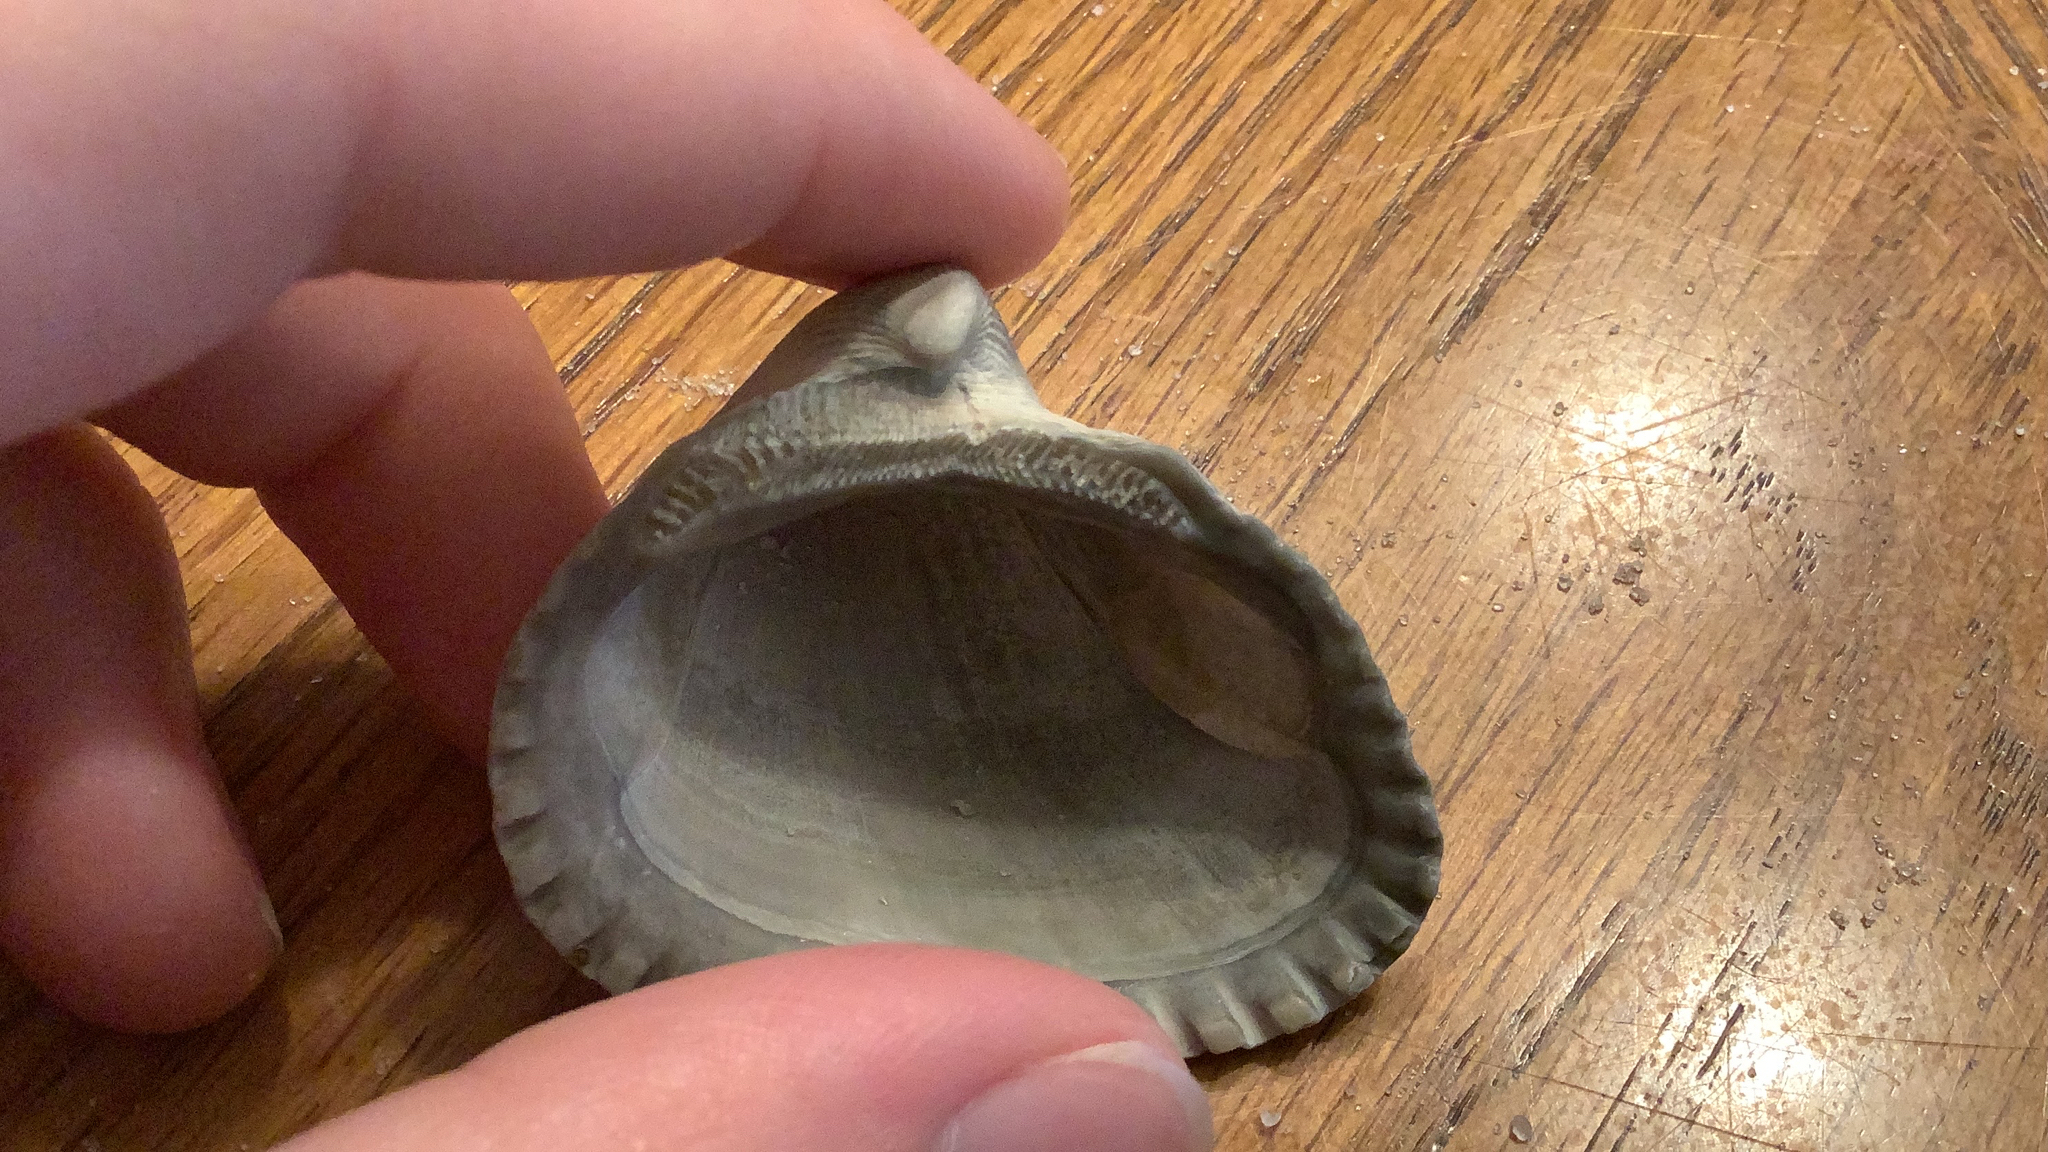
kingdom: Animalia
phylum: Mollusca
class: Bivalvia
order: Arcida
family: Noetiidae
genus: Noetia
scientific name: Noetia ponderosa
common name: Ponderous ark
